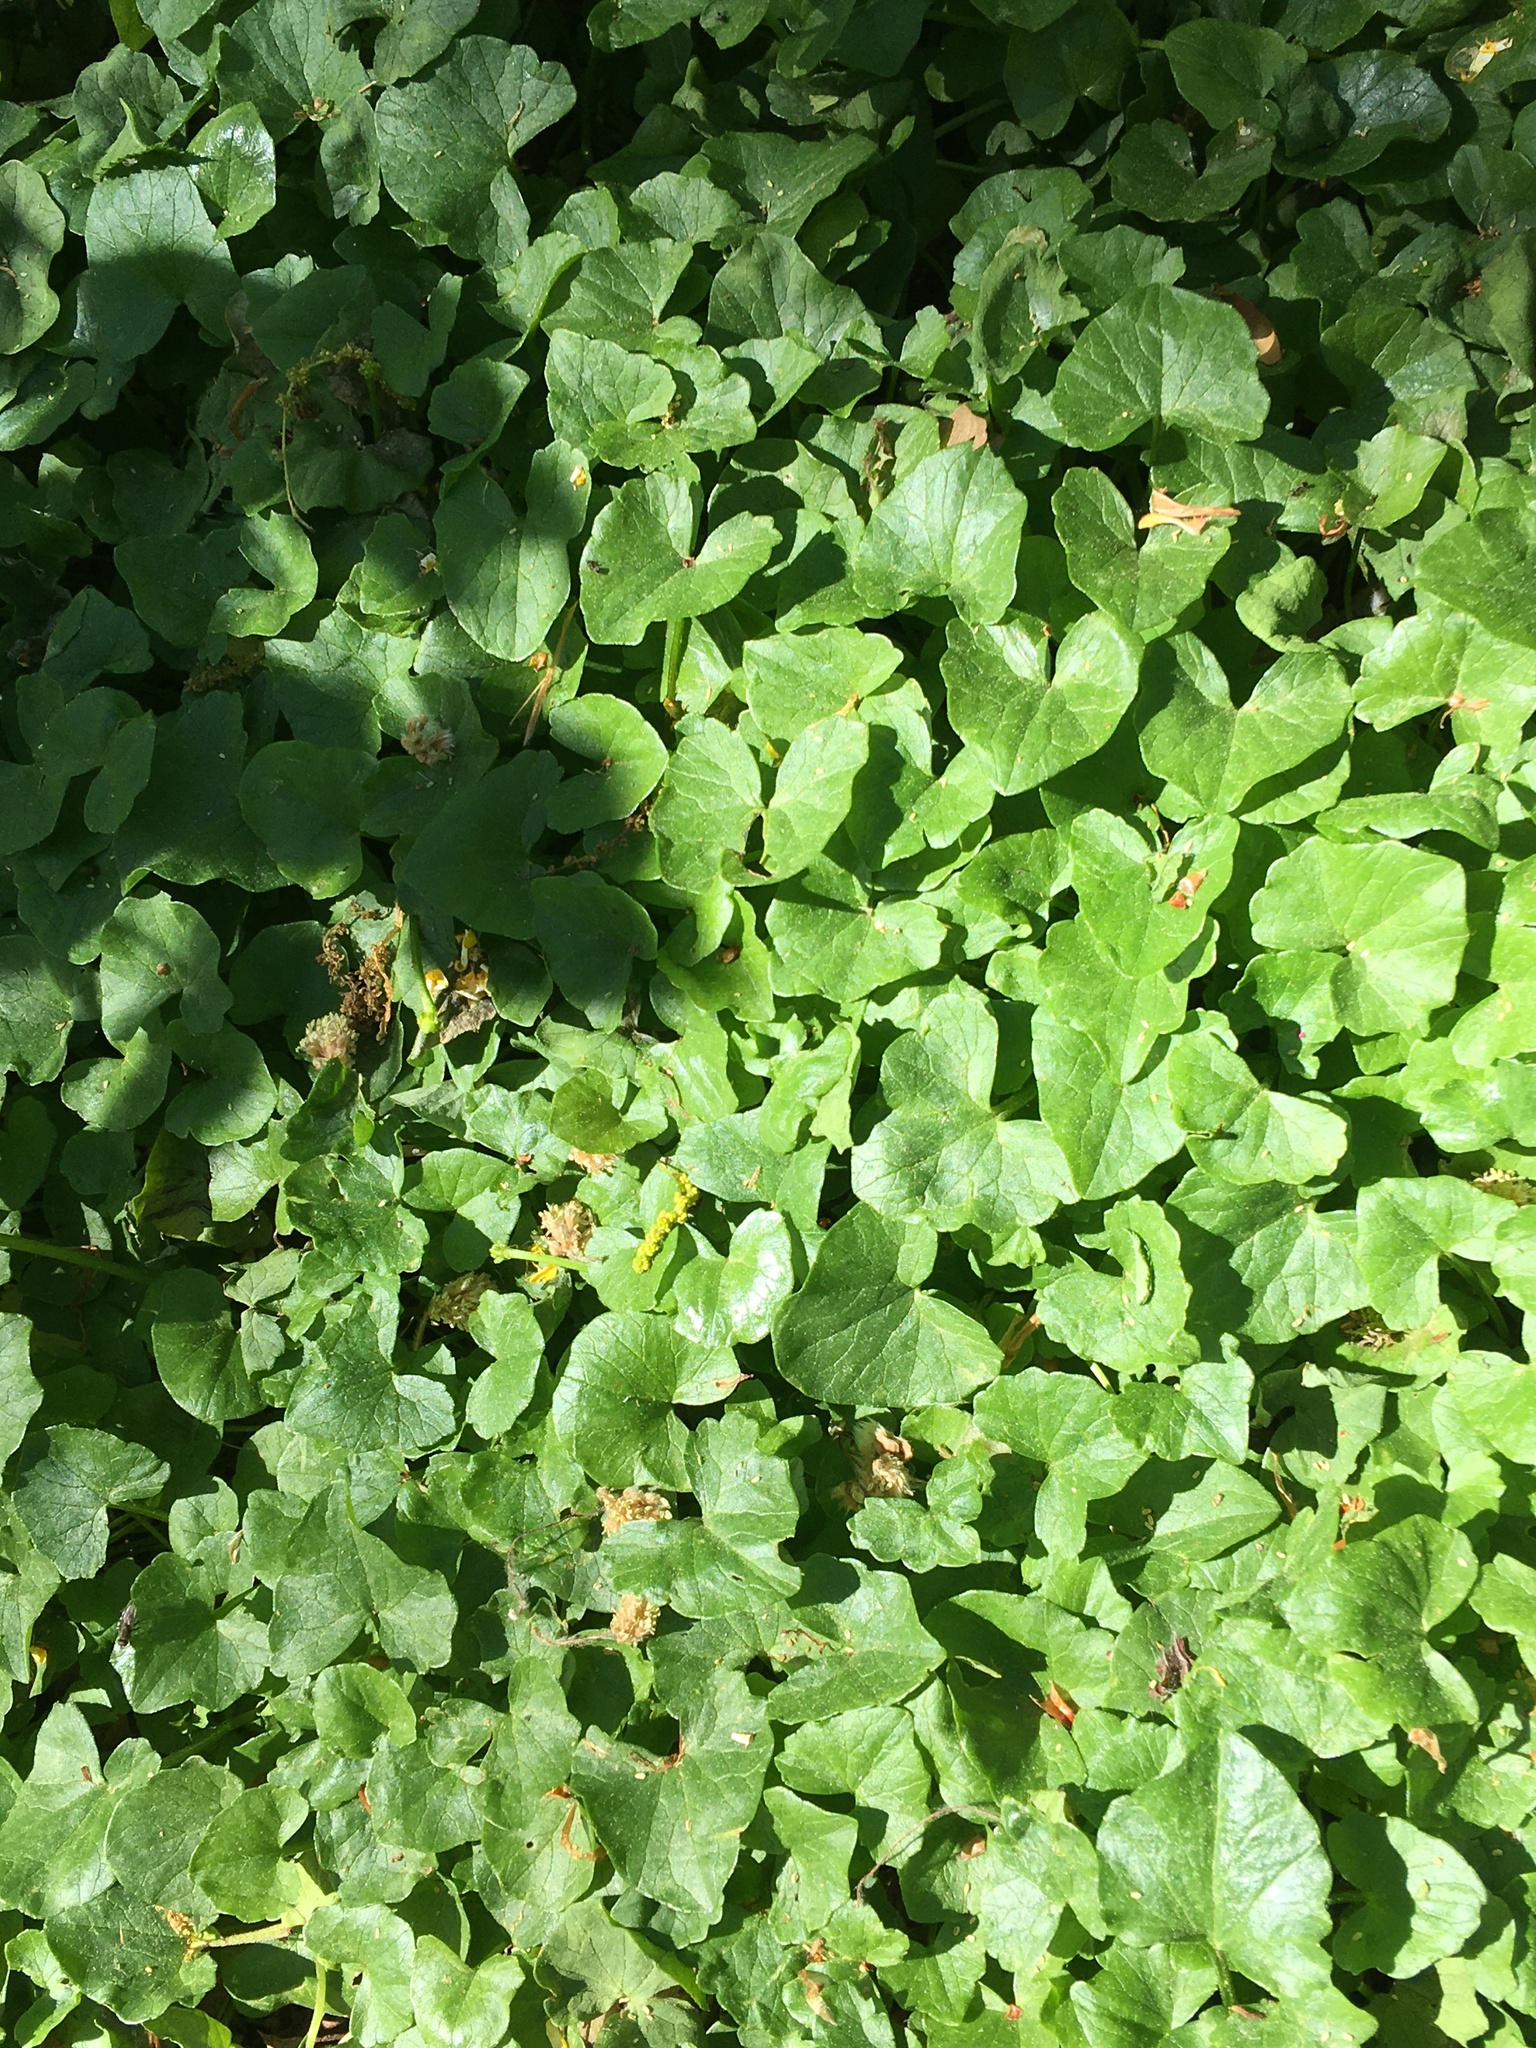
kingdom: Plantae
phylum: Tracheophyta
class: Magnoliopsida
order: Ranunculales
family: Ranunculaceae
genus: Ficaria
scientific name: Ficaria verna
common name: Lesser celandine
